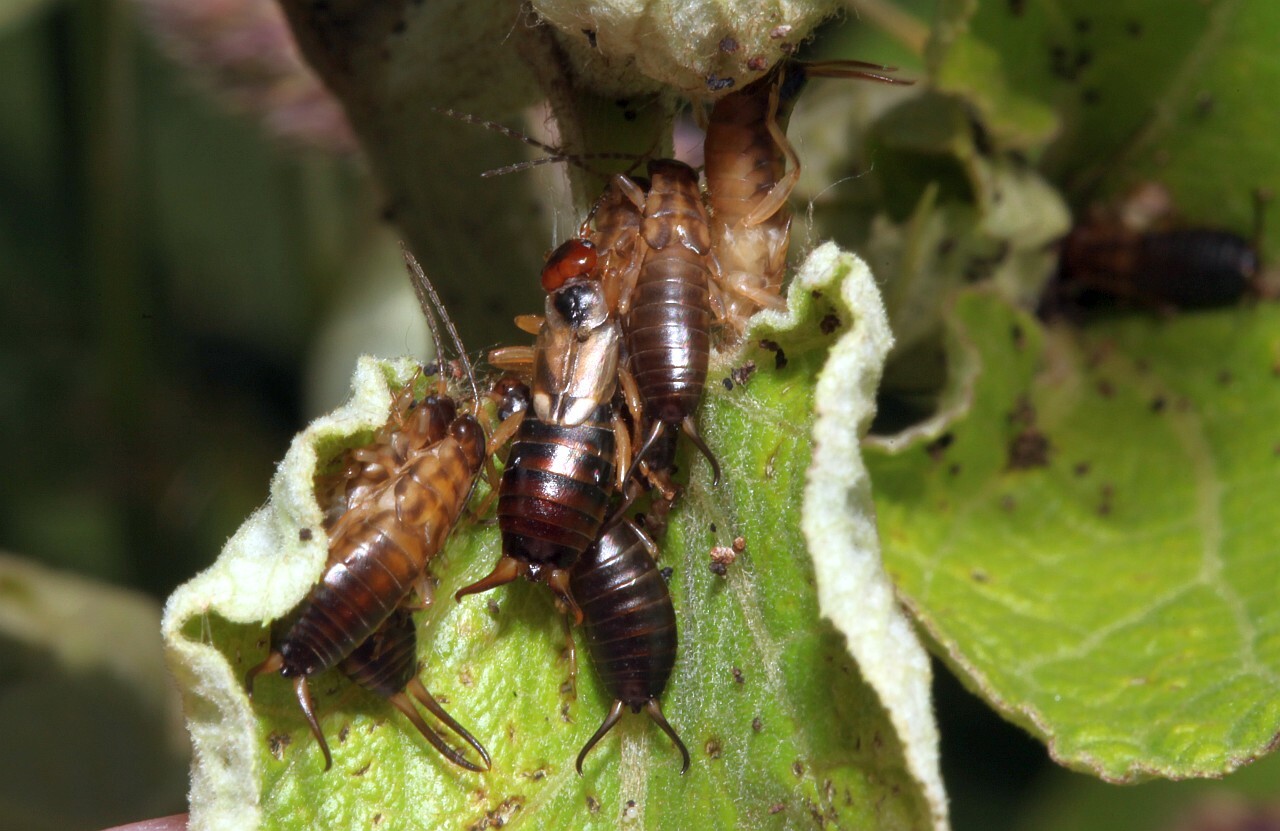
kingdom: Animalia
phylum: Arthropoda
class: Insecta
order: Dermaptera
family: Forficulidae
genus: Forficula
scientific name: Forficula
